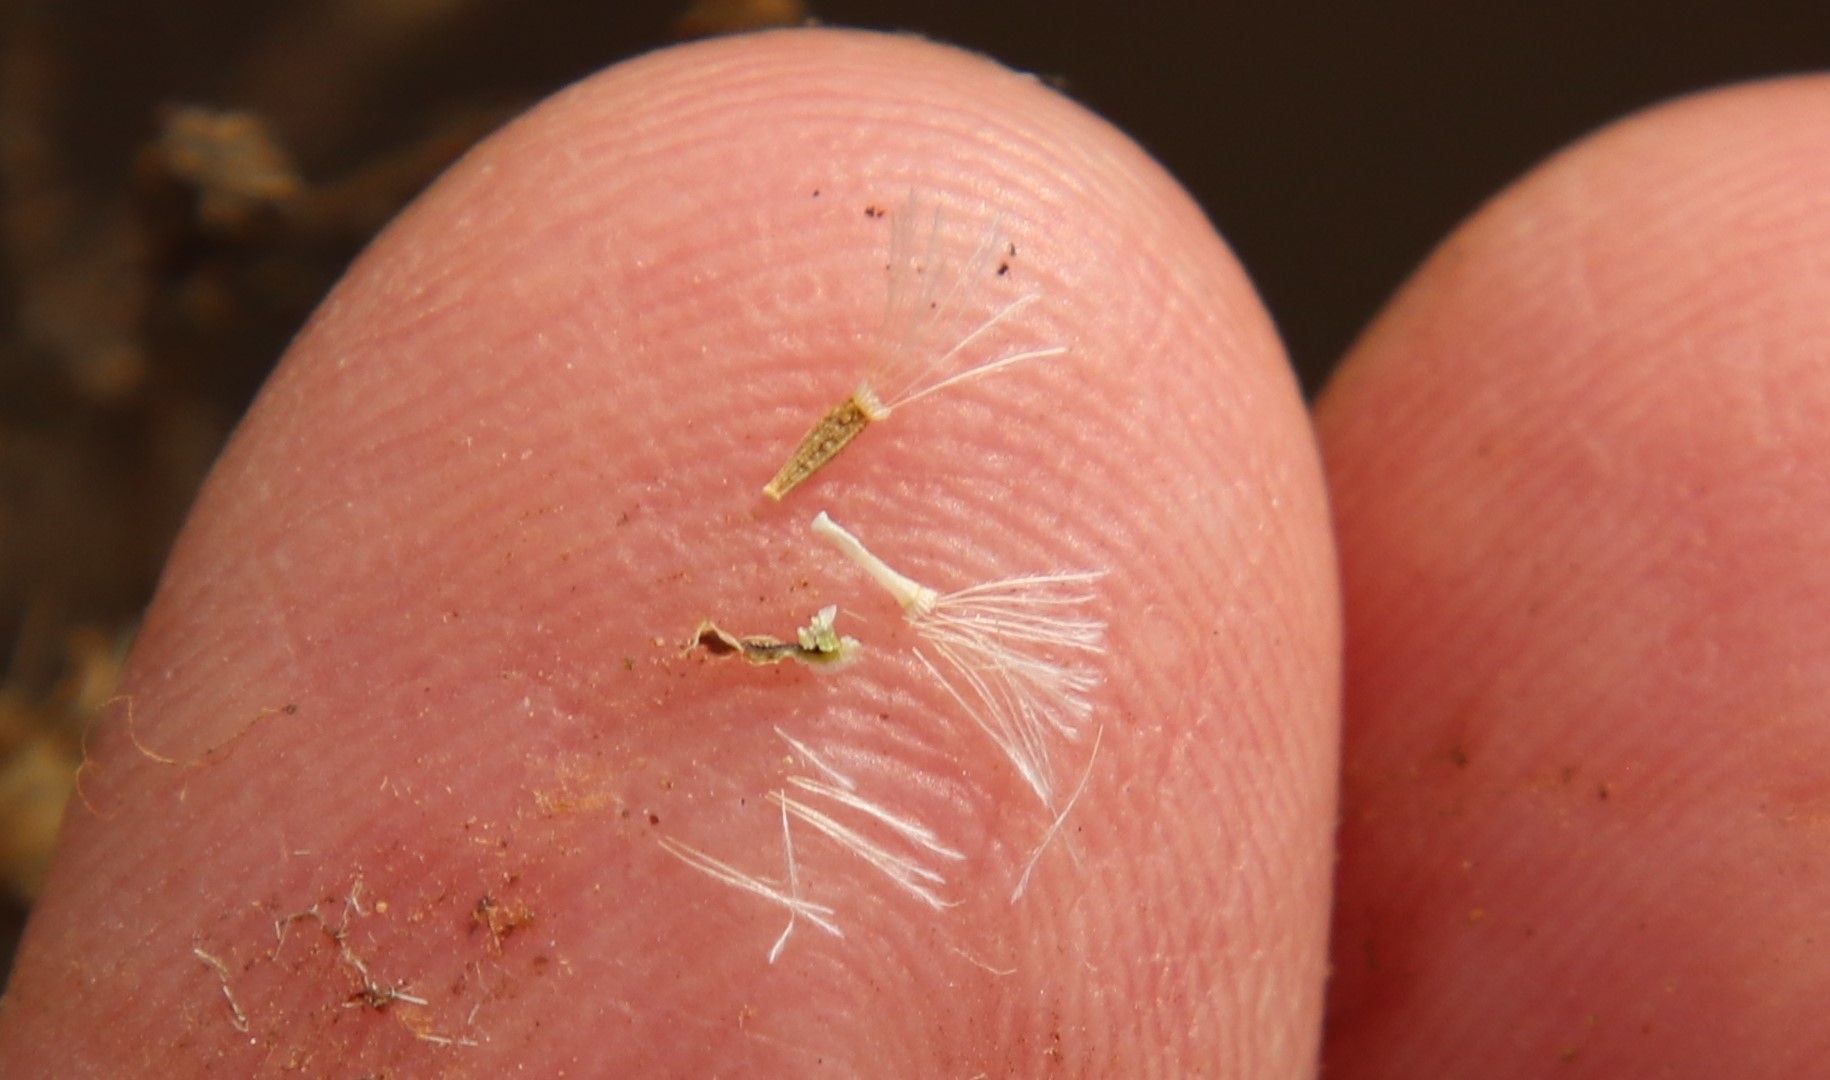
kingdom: Plantae
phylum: Tracheophyta
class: Magnoliopsida
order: Asterales
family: Asteraceae
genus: Stephanomeria
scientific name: Stephanomeria exigua
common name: Small wirelettuce
